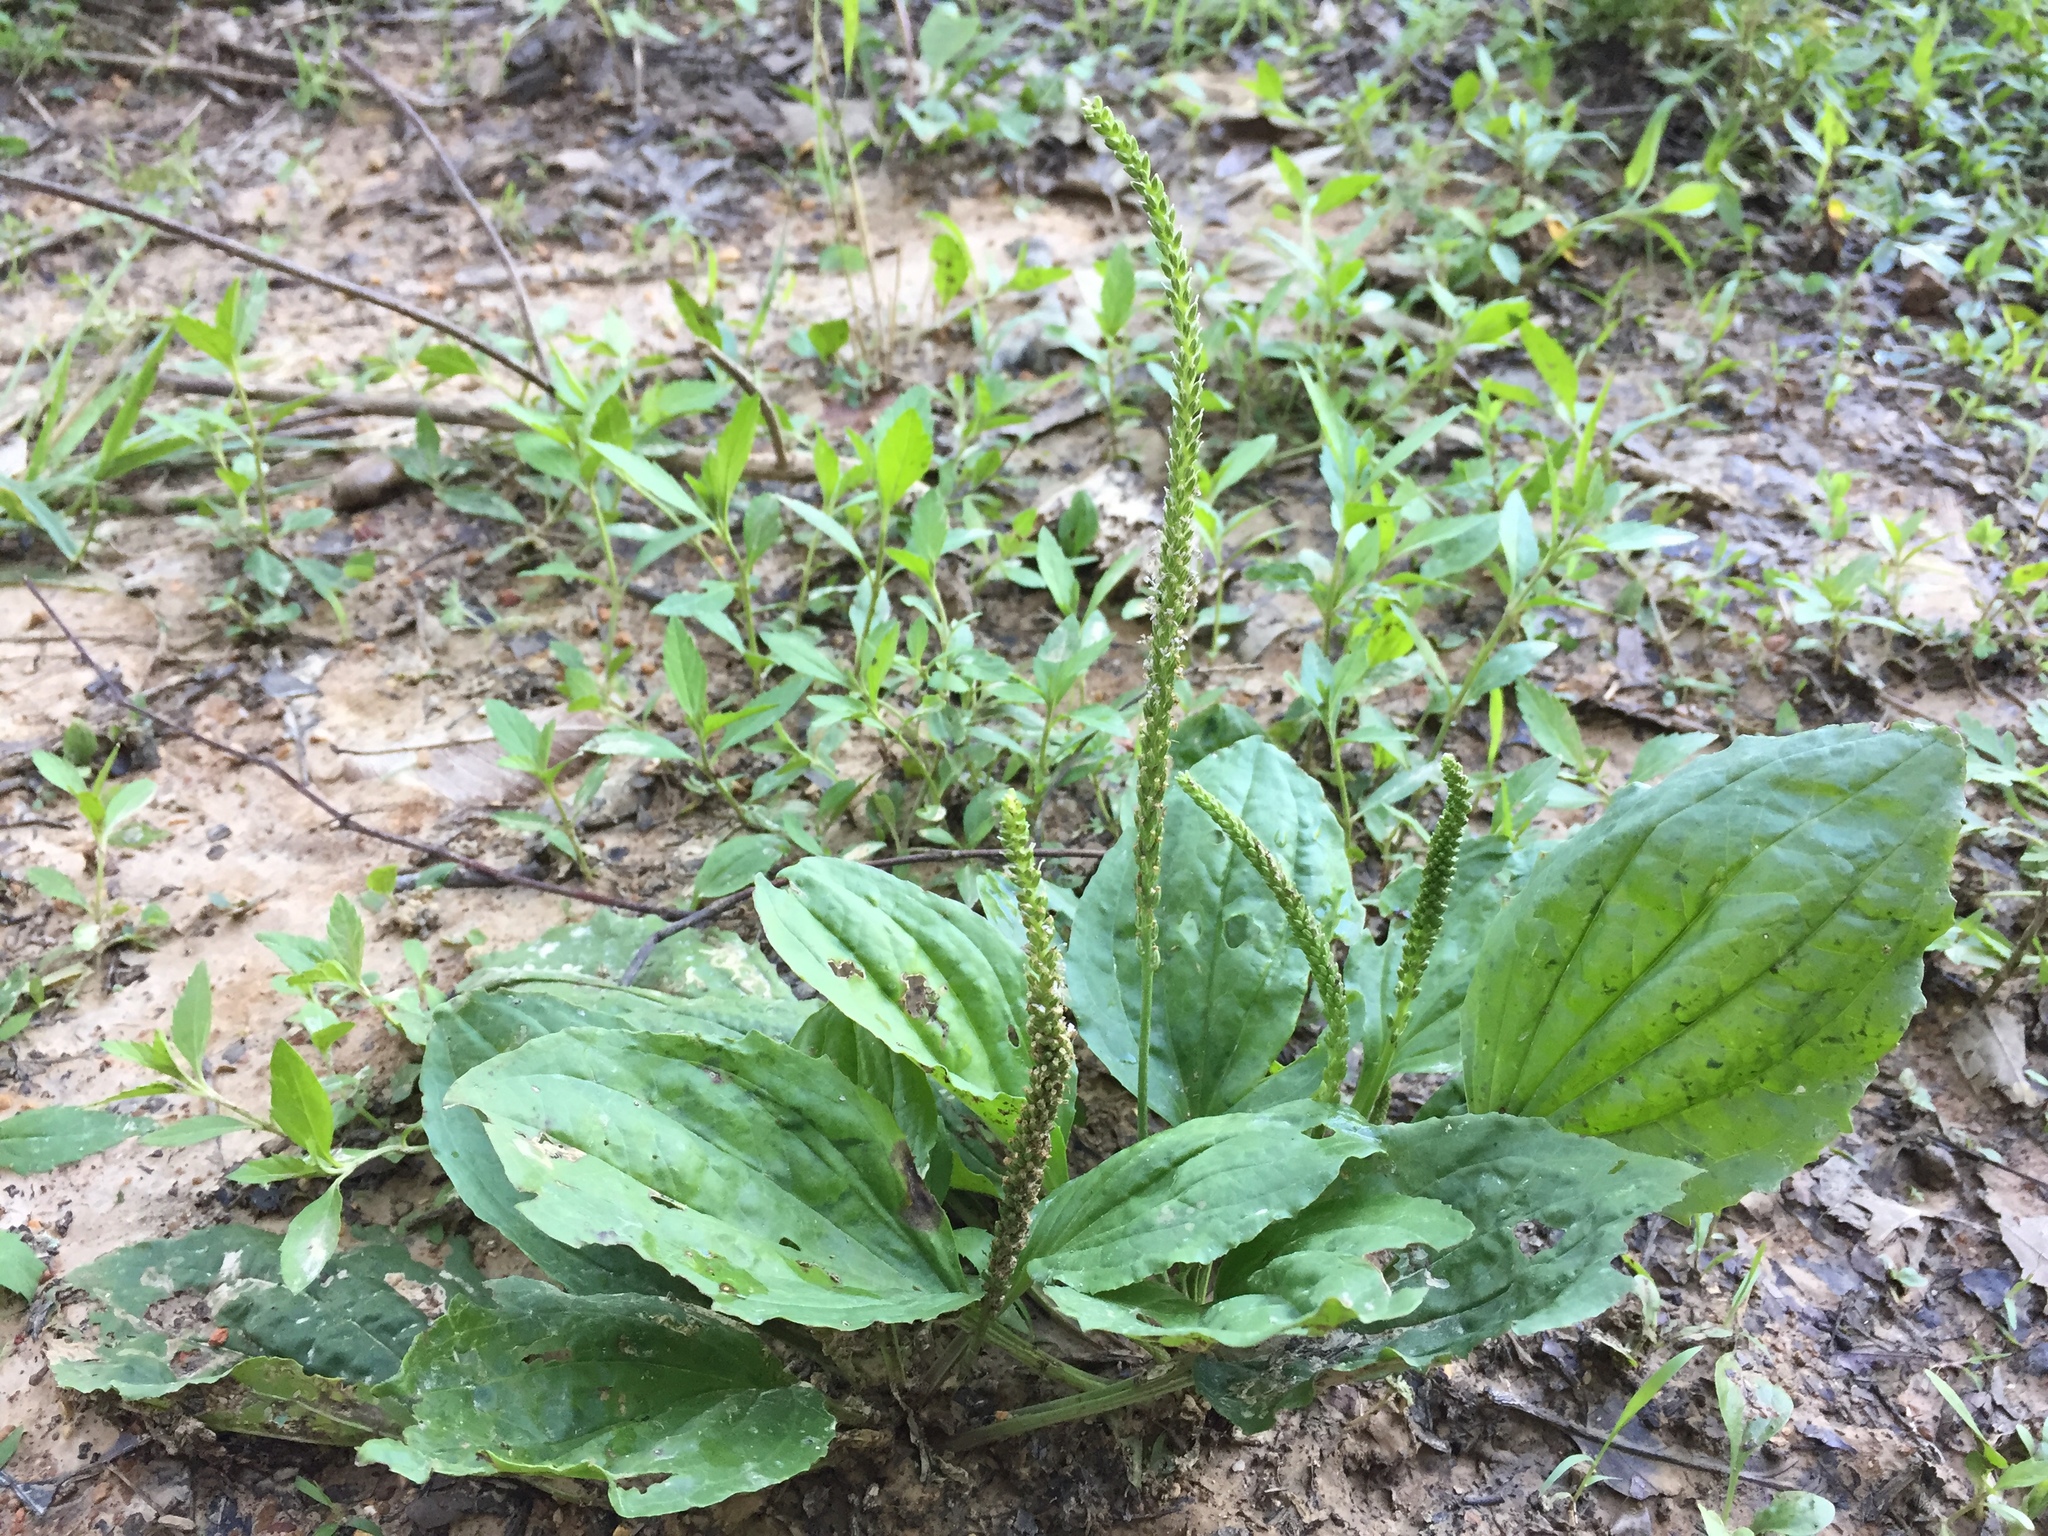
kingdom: Plantae
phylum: Tracheophyta
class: Magnoliopsida
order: Lamiales
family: Plantaginaceae
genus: Plantago
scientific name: Plantago major
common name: Common plantain
